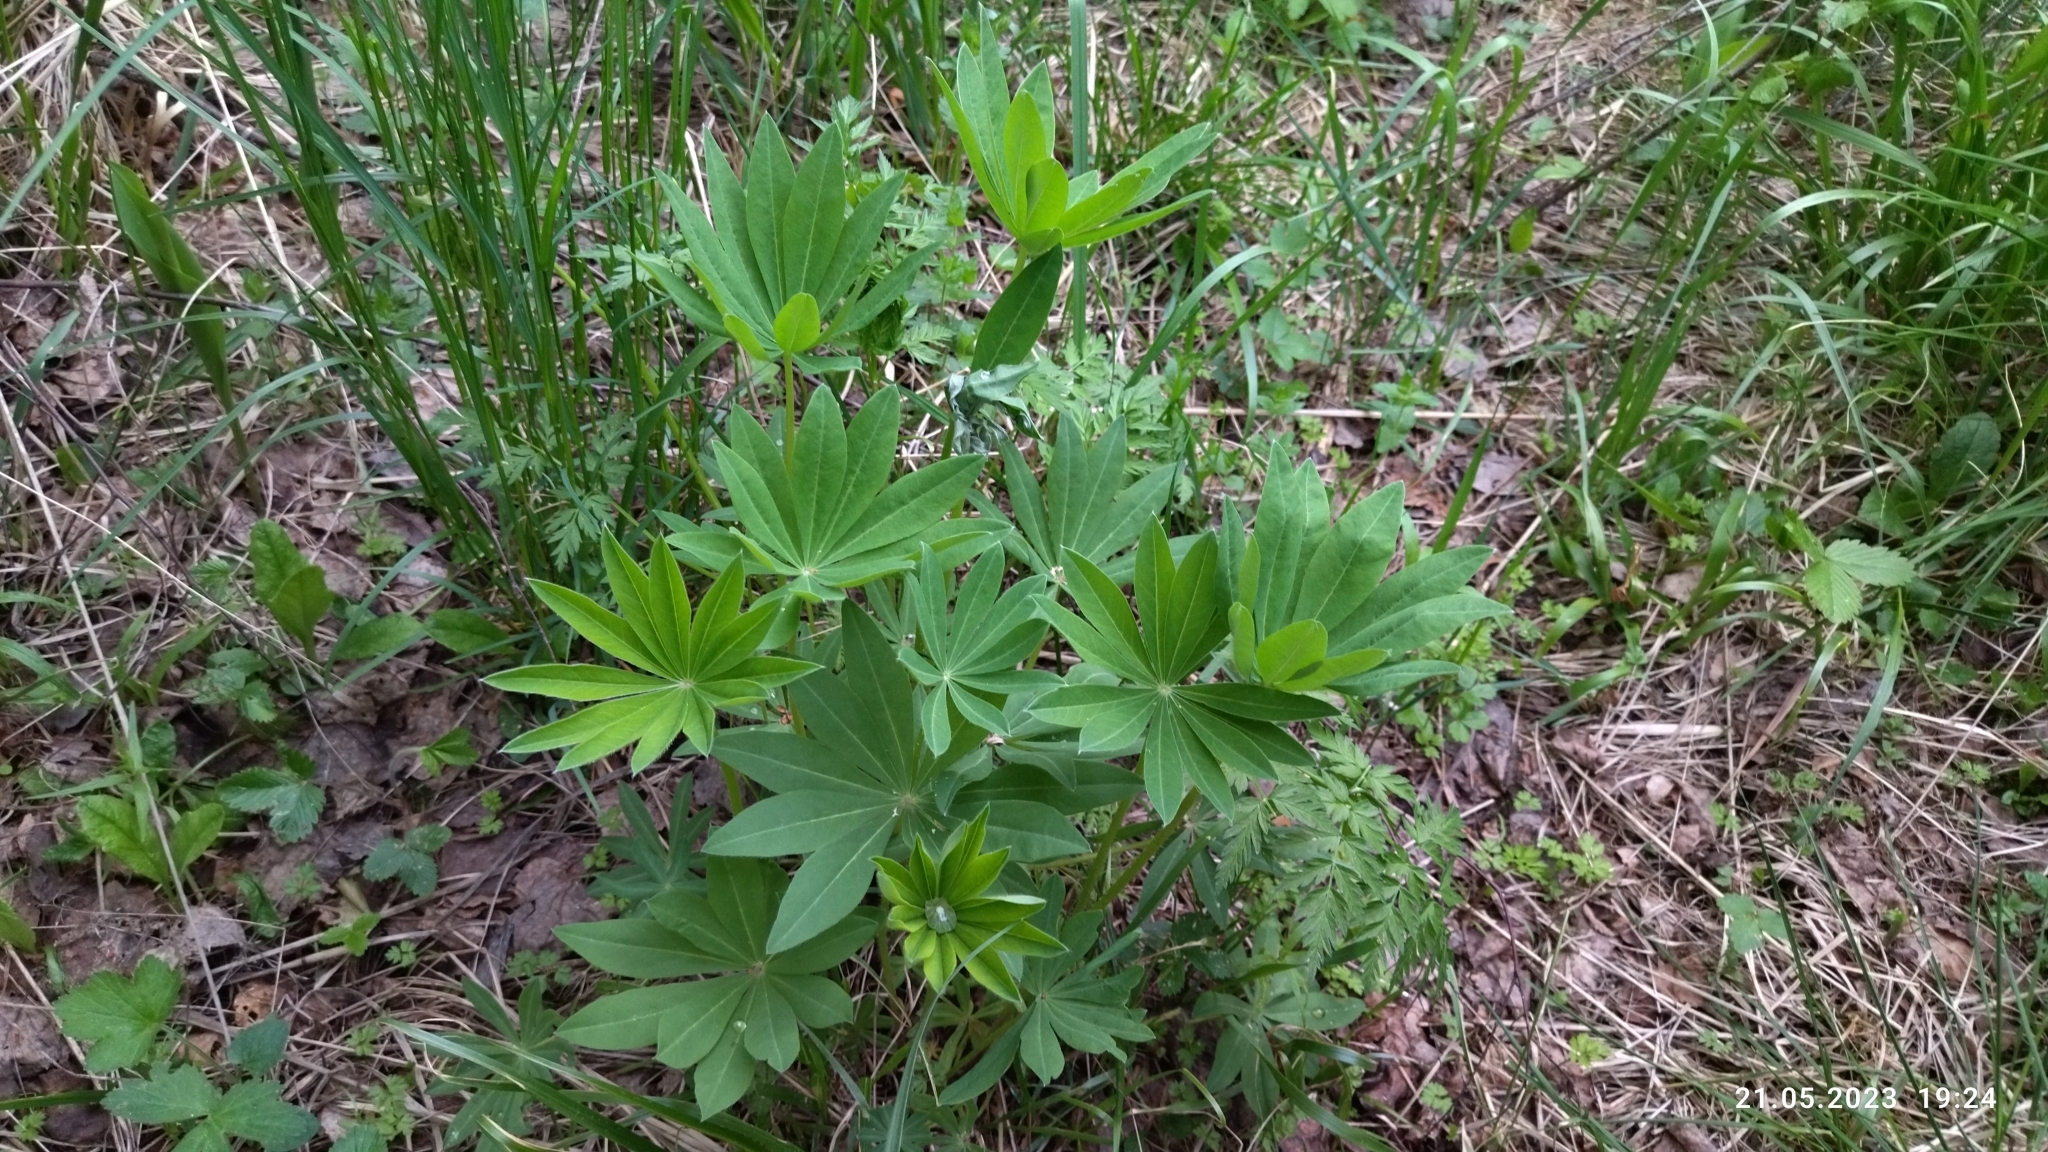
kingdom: Plantae
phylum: Tracheophyta
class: Magnoliopsida
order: Fabales
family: Fabaceae
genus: Lupinus
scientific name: Lupinus polyphyllus
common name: Garden lupin
